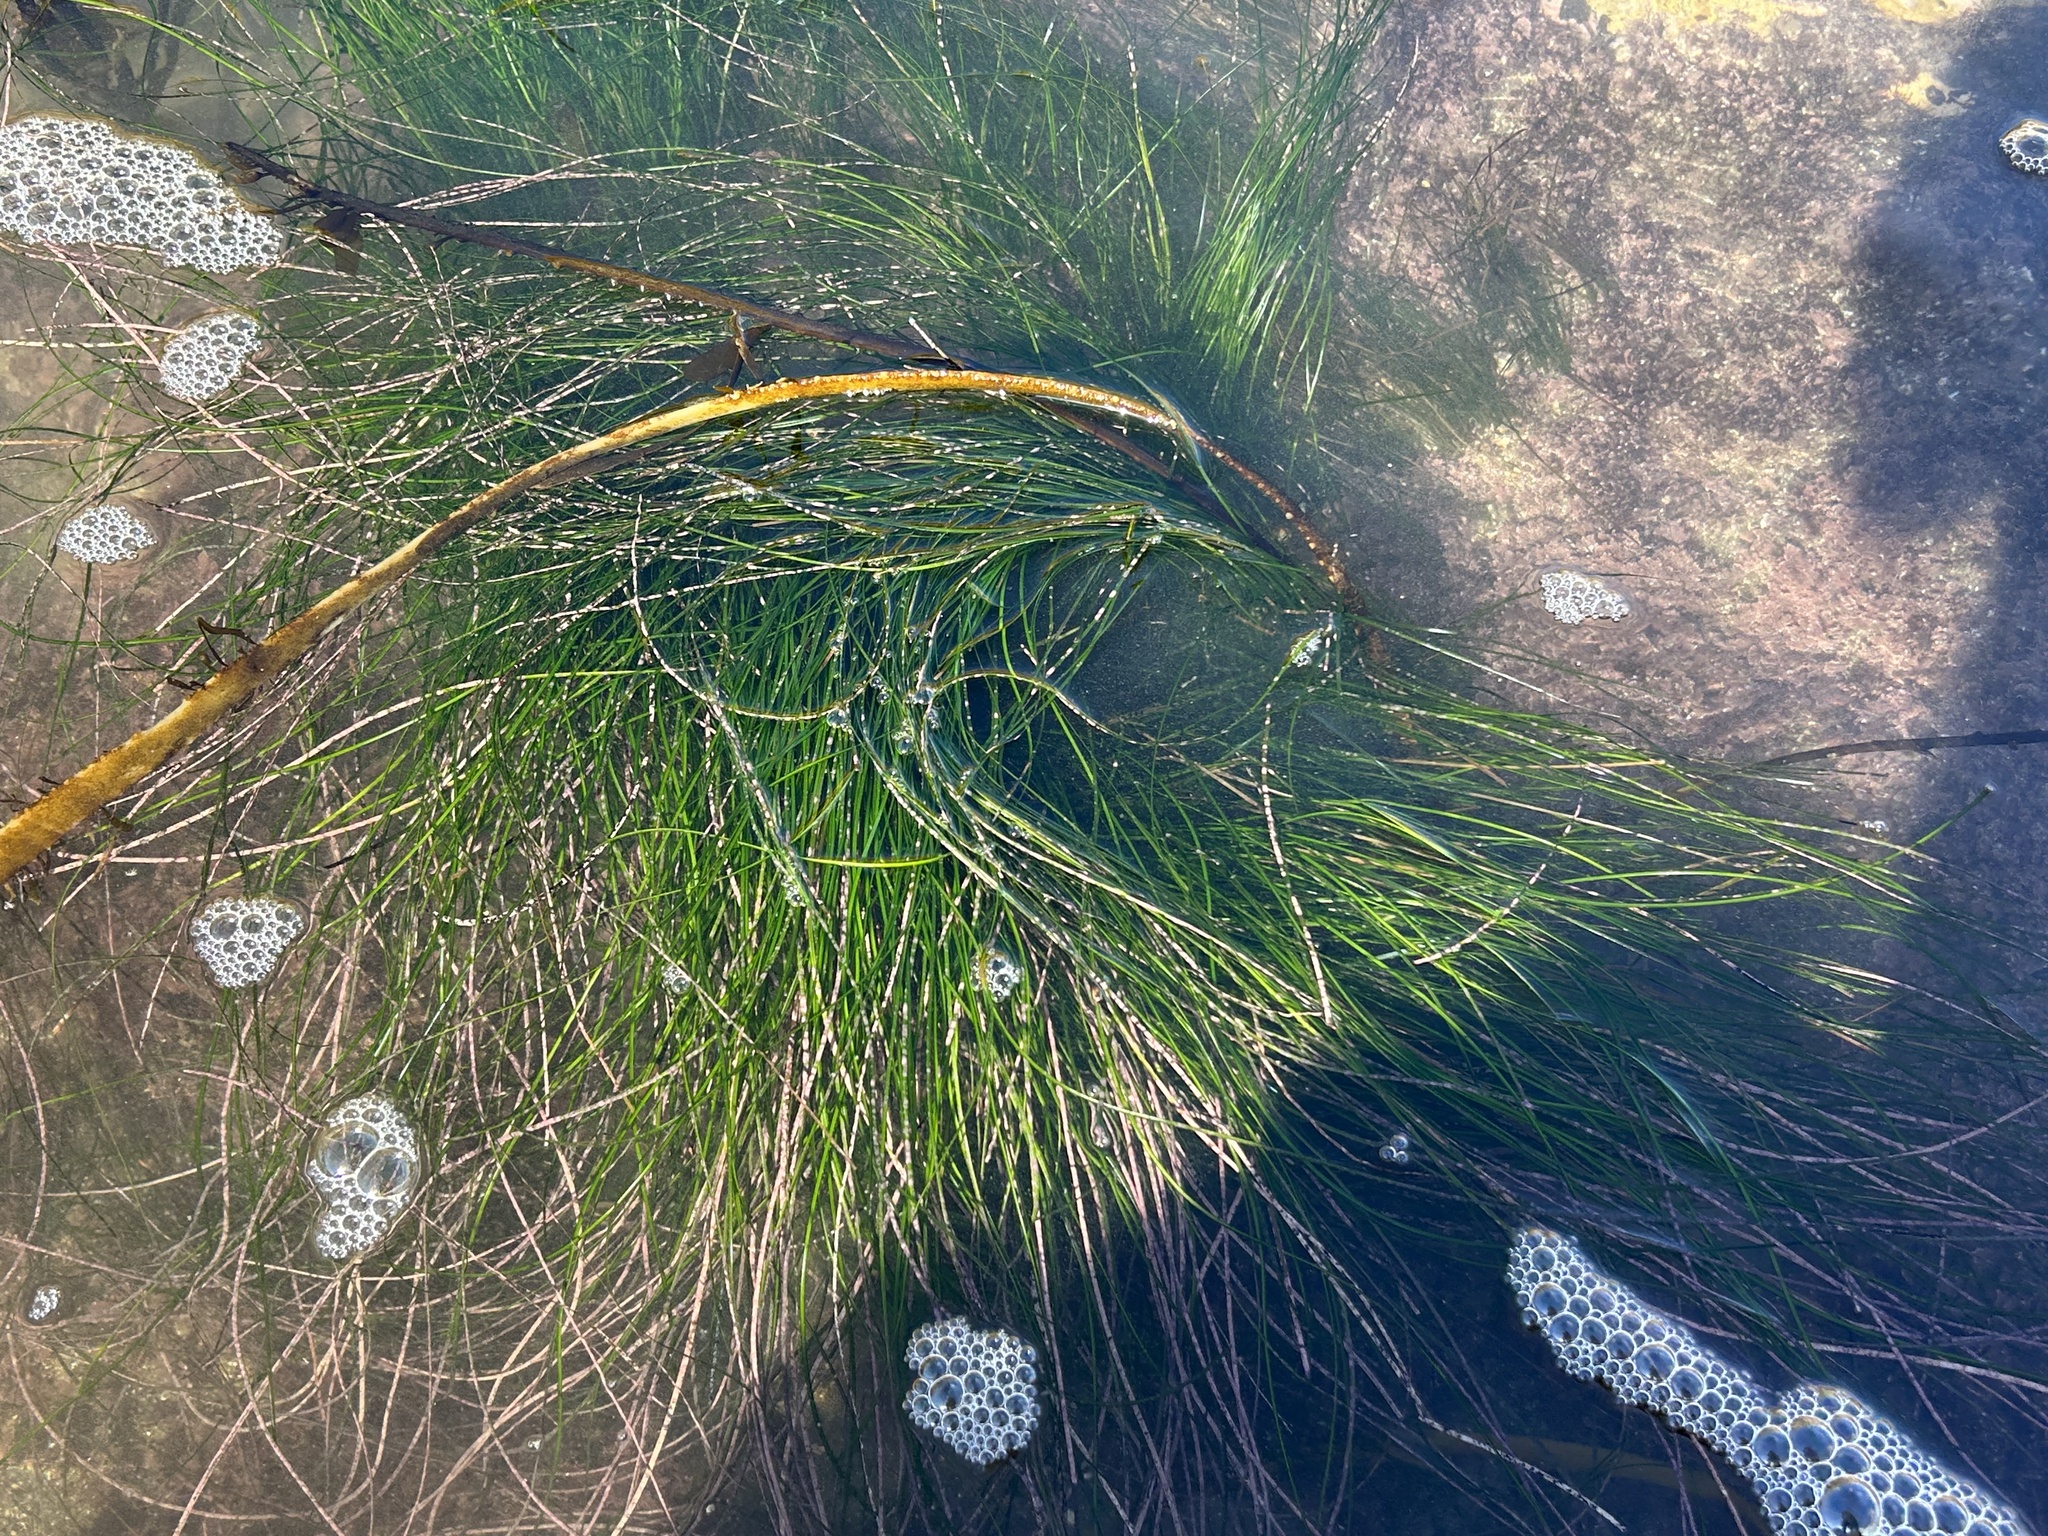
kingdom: Plantae
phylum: Tracheophyta
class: Liliopsida
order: Alismatales
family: Zosteraceae
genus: Phyllospadix
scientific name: Phyllospadix torreyi
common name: Surfgrass
